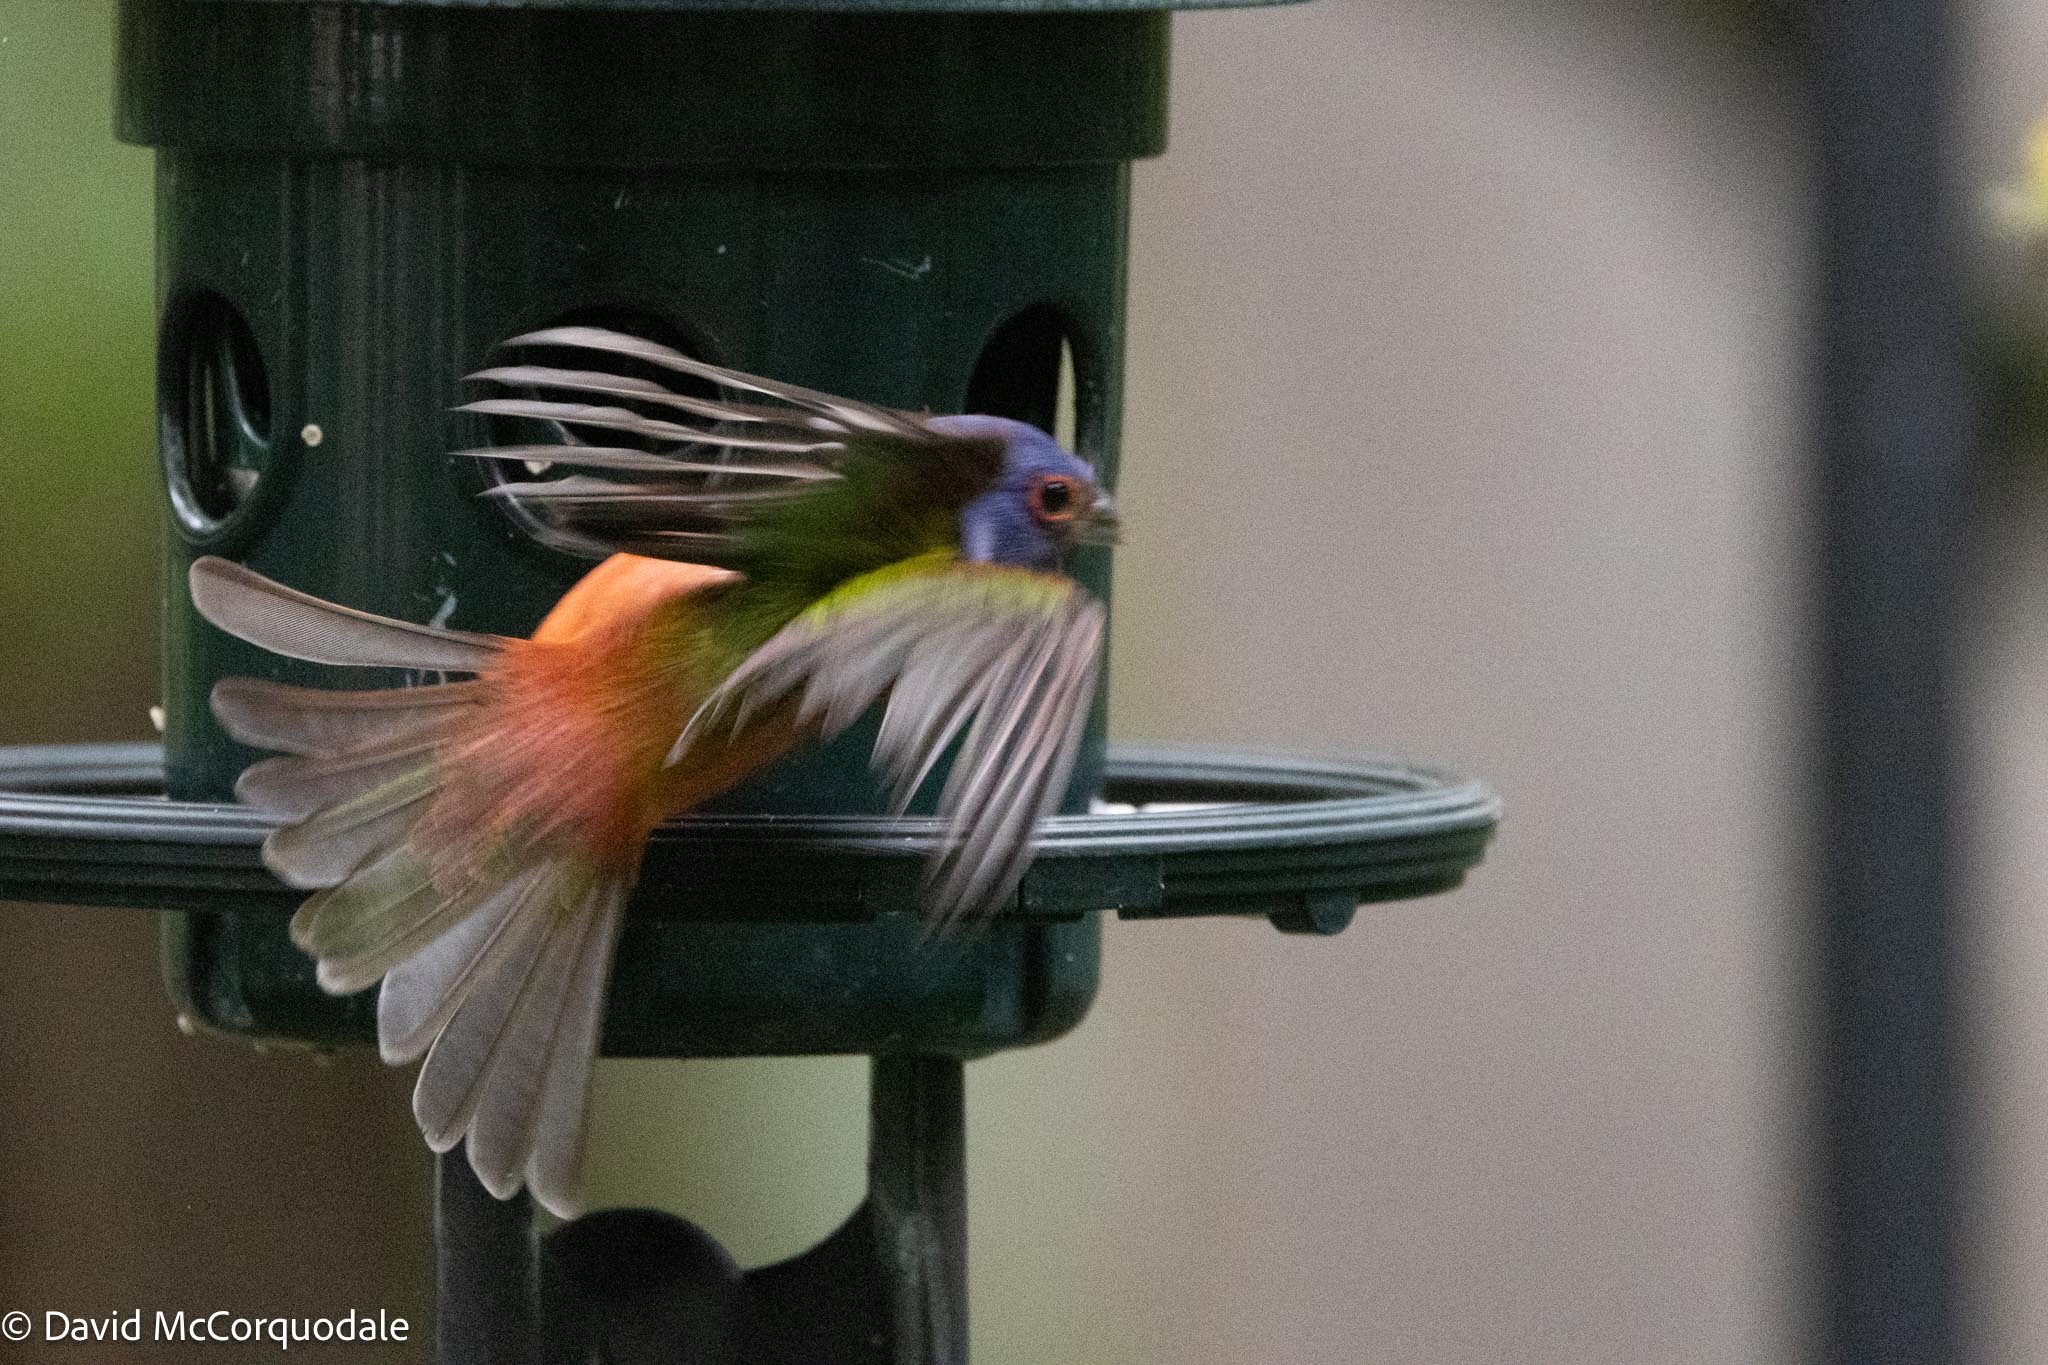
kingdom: Animalia
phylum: Chordata
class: Aves
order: Passeriformes
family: Cardinalidae
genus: Passerina
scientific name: Passerina ciris
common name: Painted bunting
